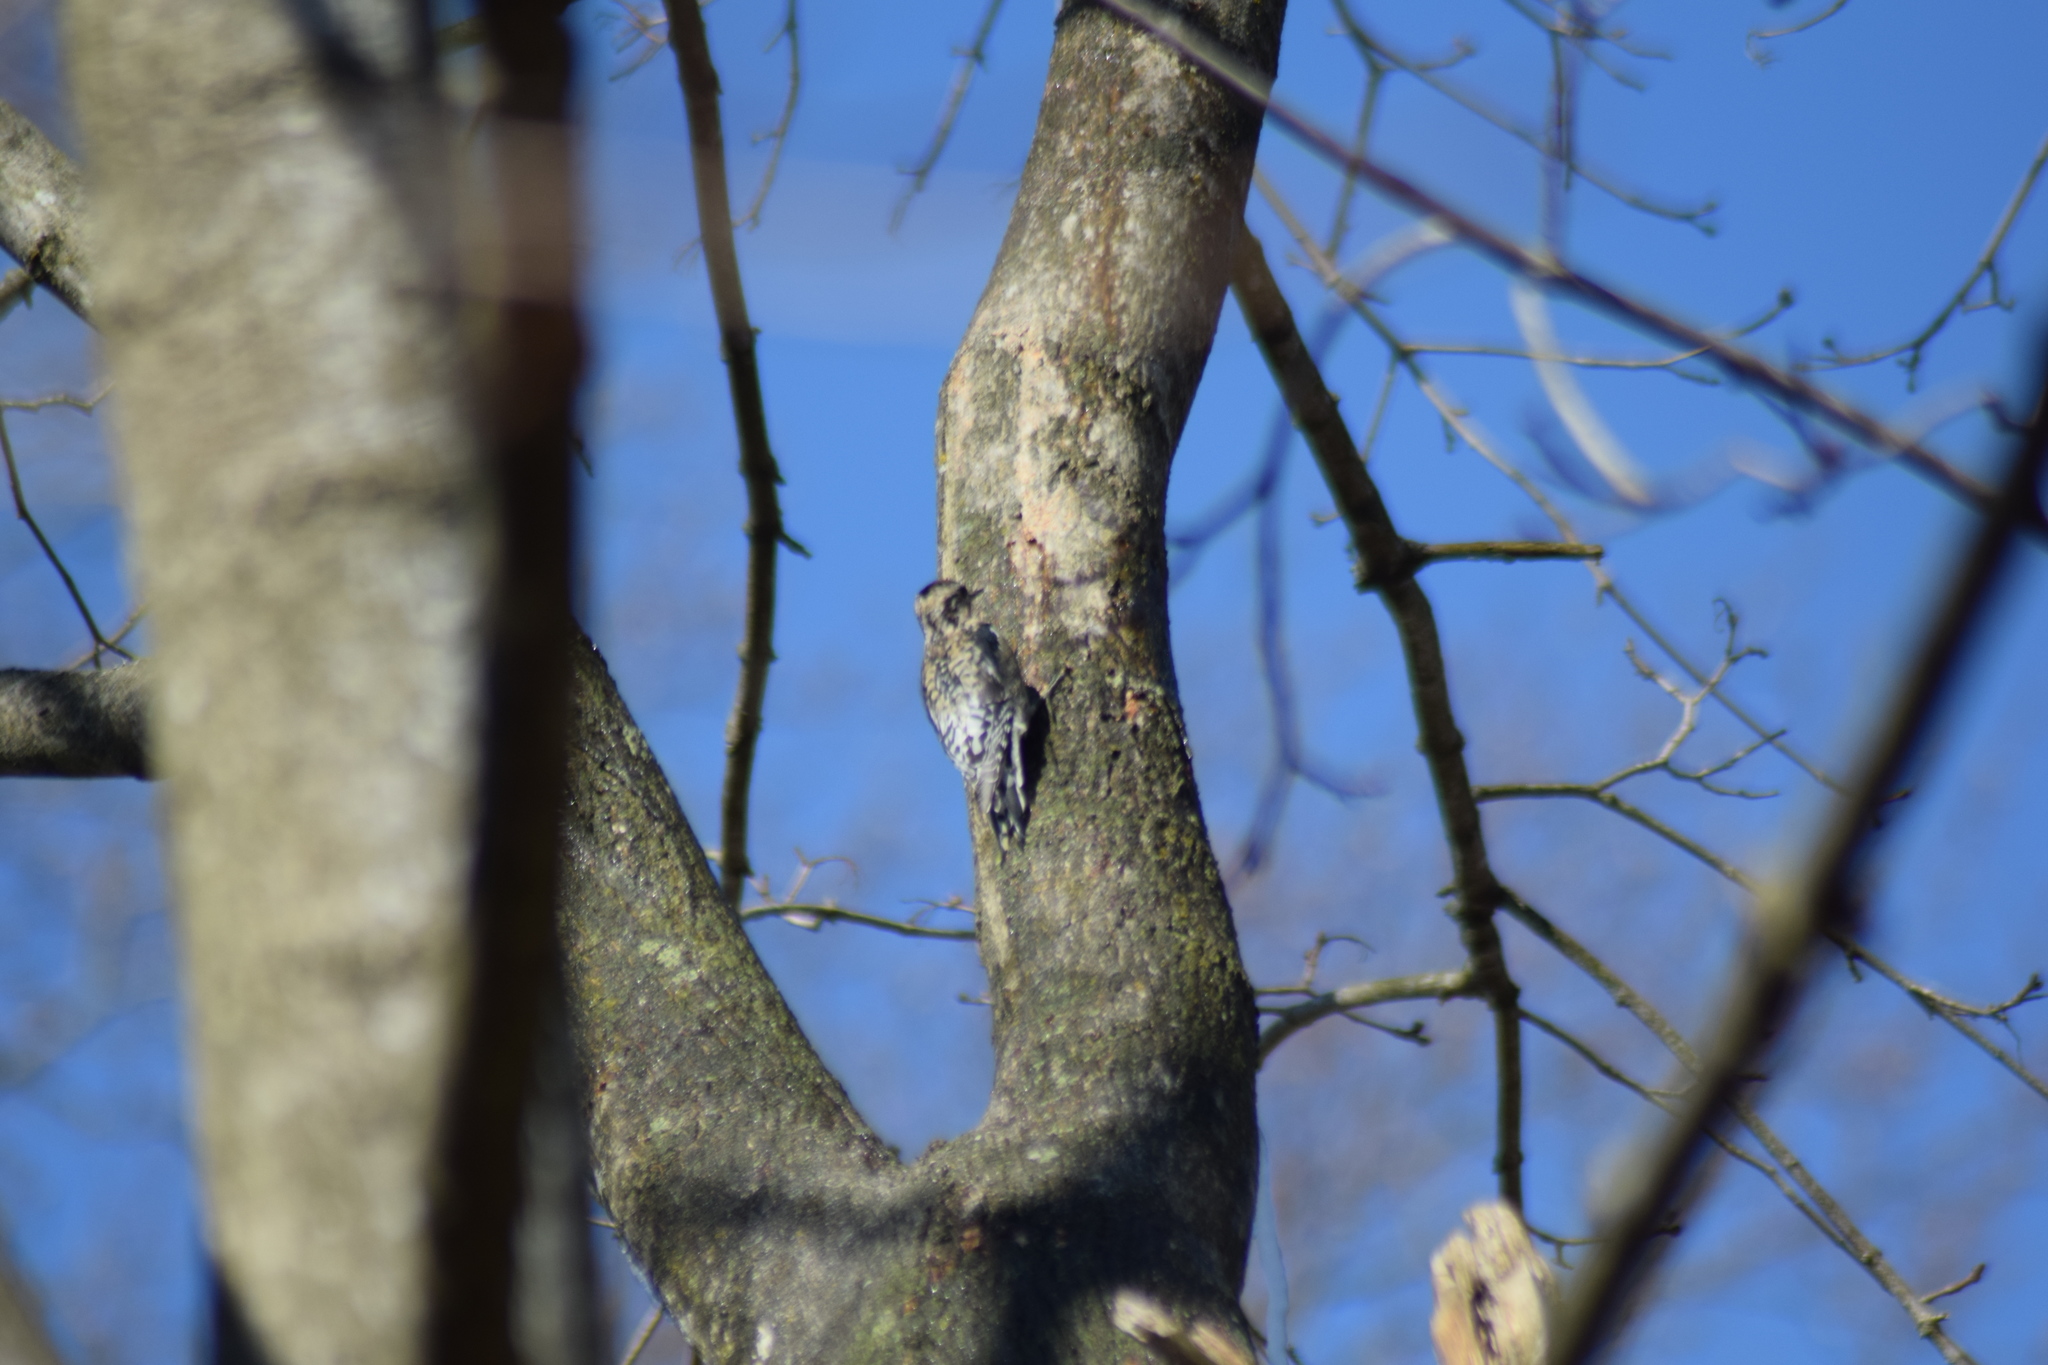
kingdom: Animalia
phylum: Chordata
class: Aves
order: Piciformes
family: Picidae
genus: Sphyrapicus
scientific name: Sphyrapicus varius
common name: Yellow-bellied sapsucker
